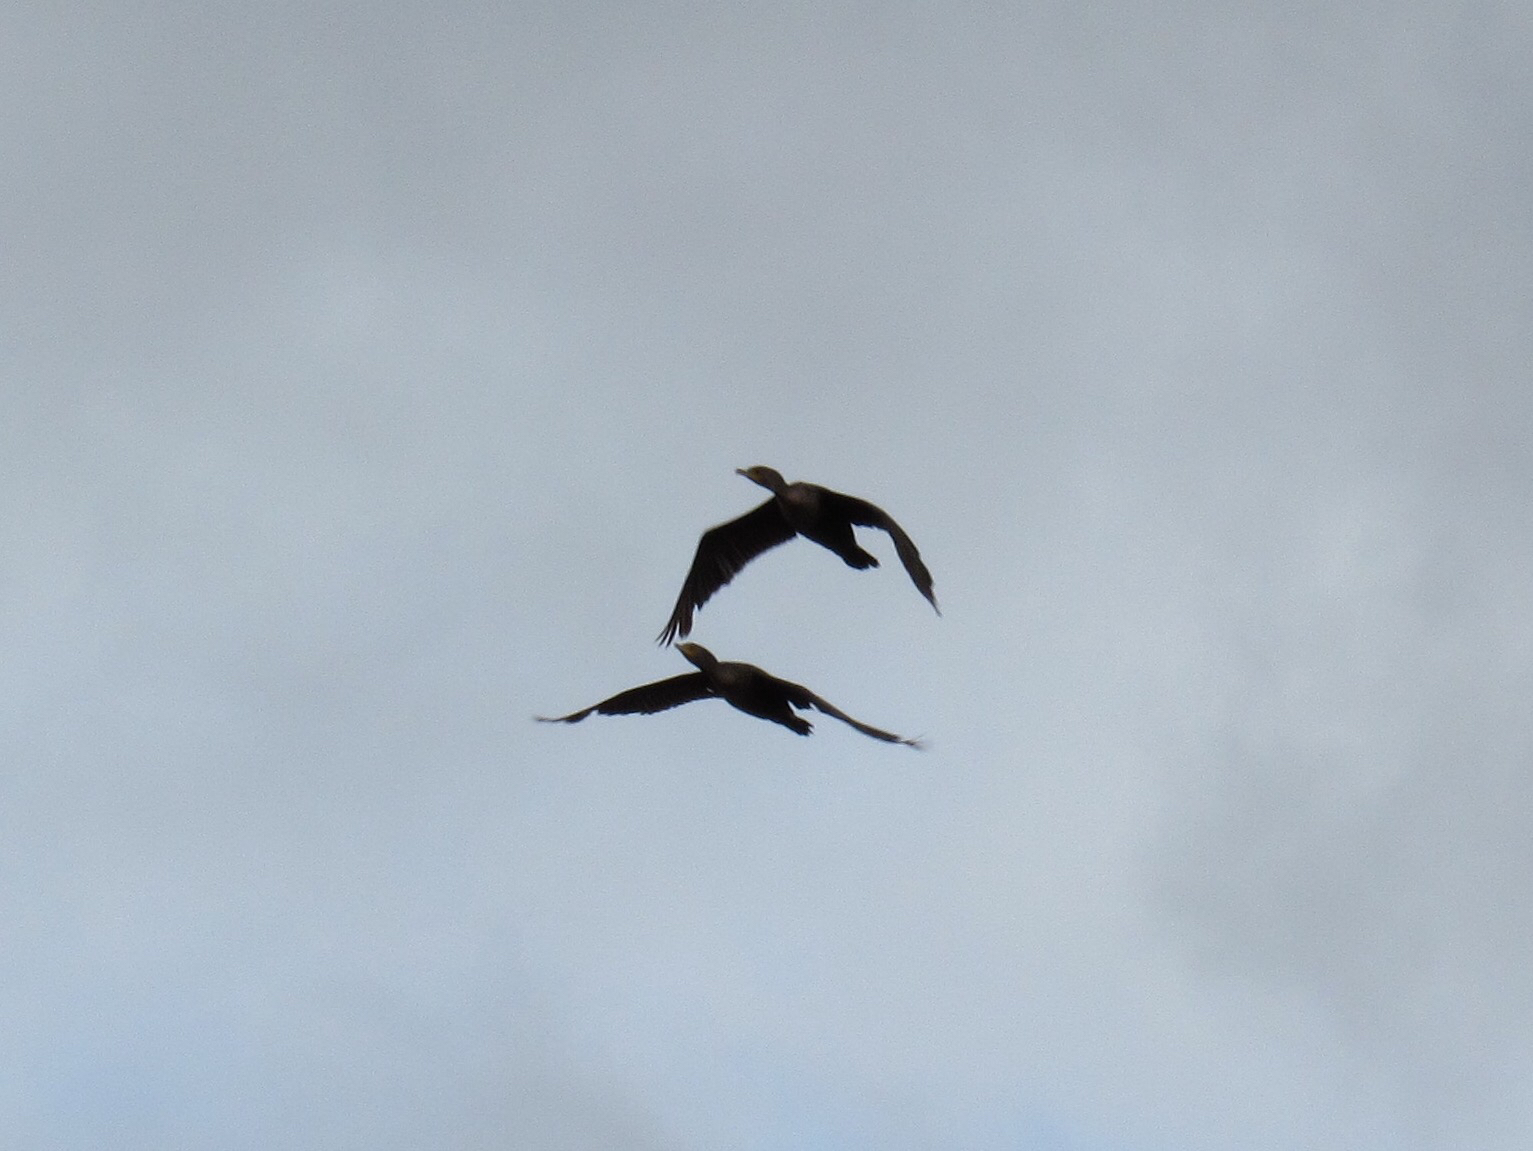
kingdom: Animalia
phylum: Chordata
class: Aves
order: Suliformes
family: Phalacrocoracidae
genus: Phalacrocorax
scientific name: Phalacrocorax auritus
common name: Double-crested cormorant
